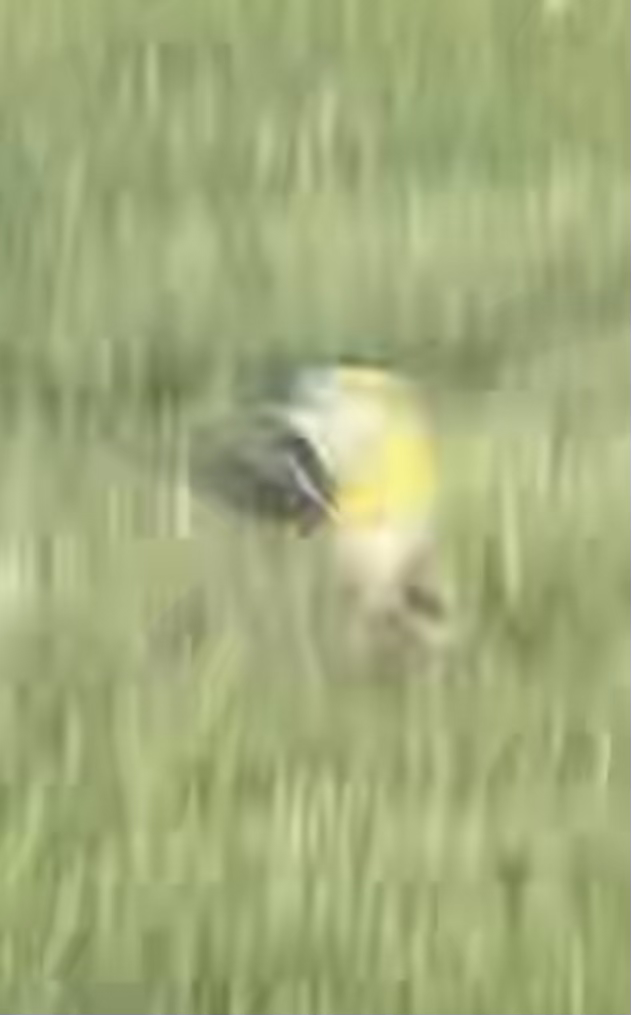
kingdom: Animalia
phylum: Chordata
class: Aves
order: Passeriformes
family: Fringillidae
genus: Spinus
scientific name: Spinus tristis
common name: American goldfinch
